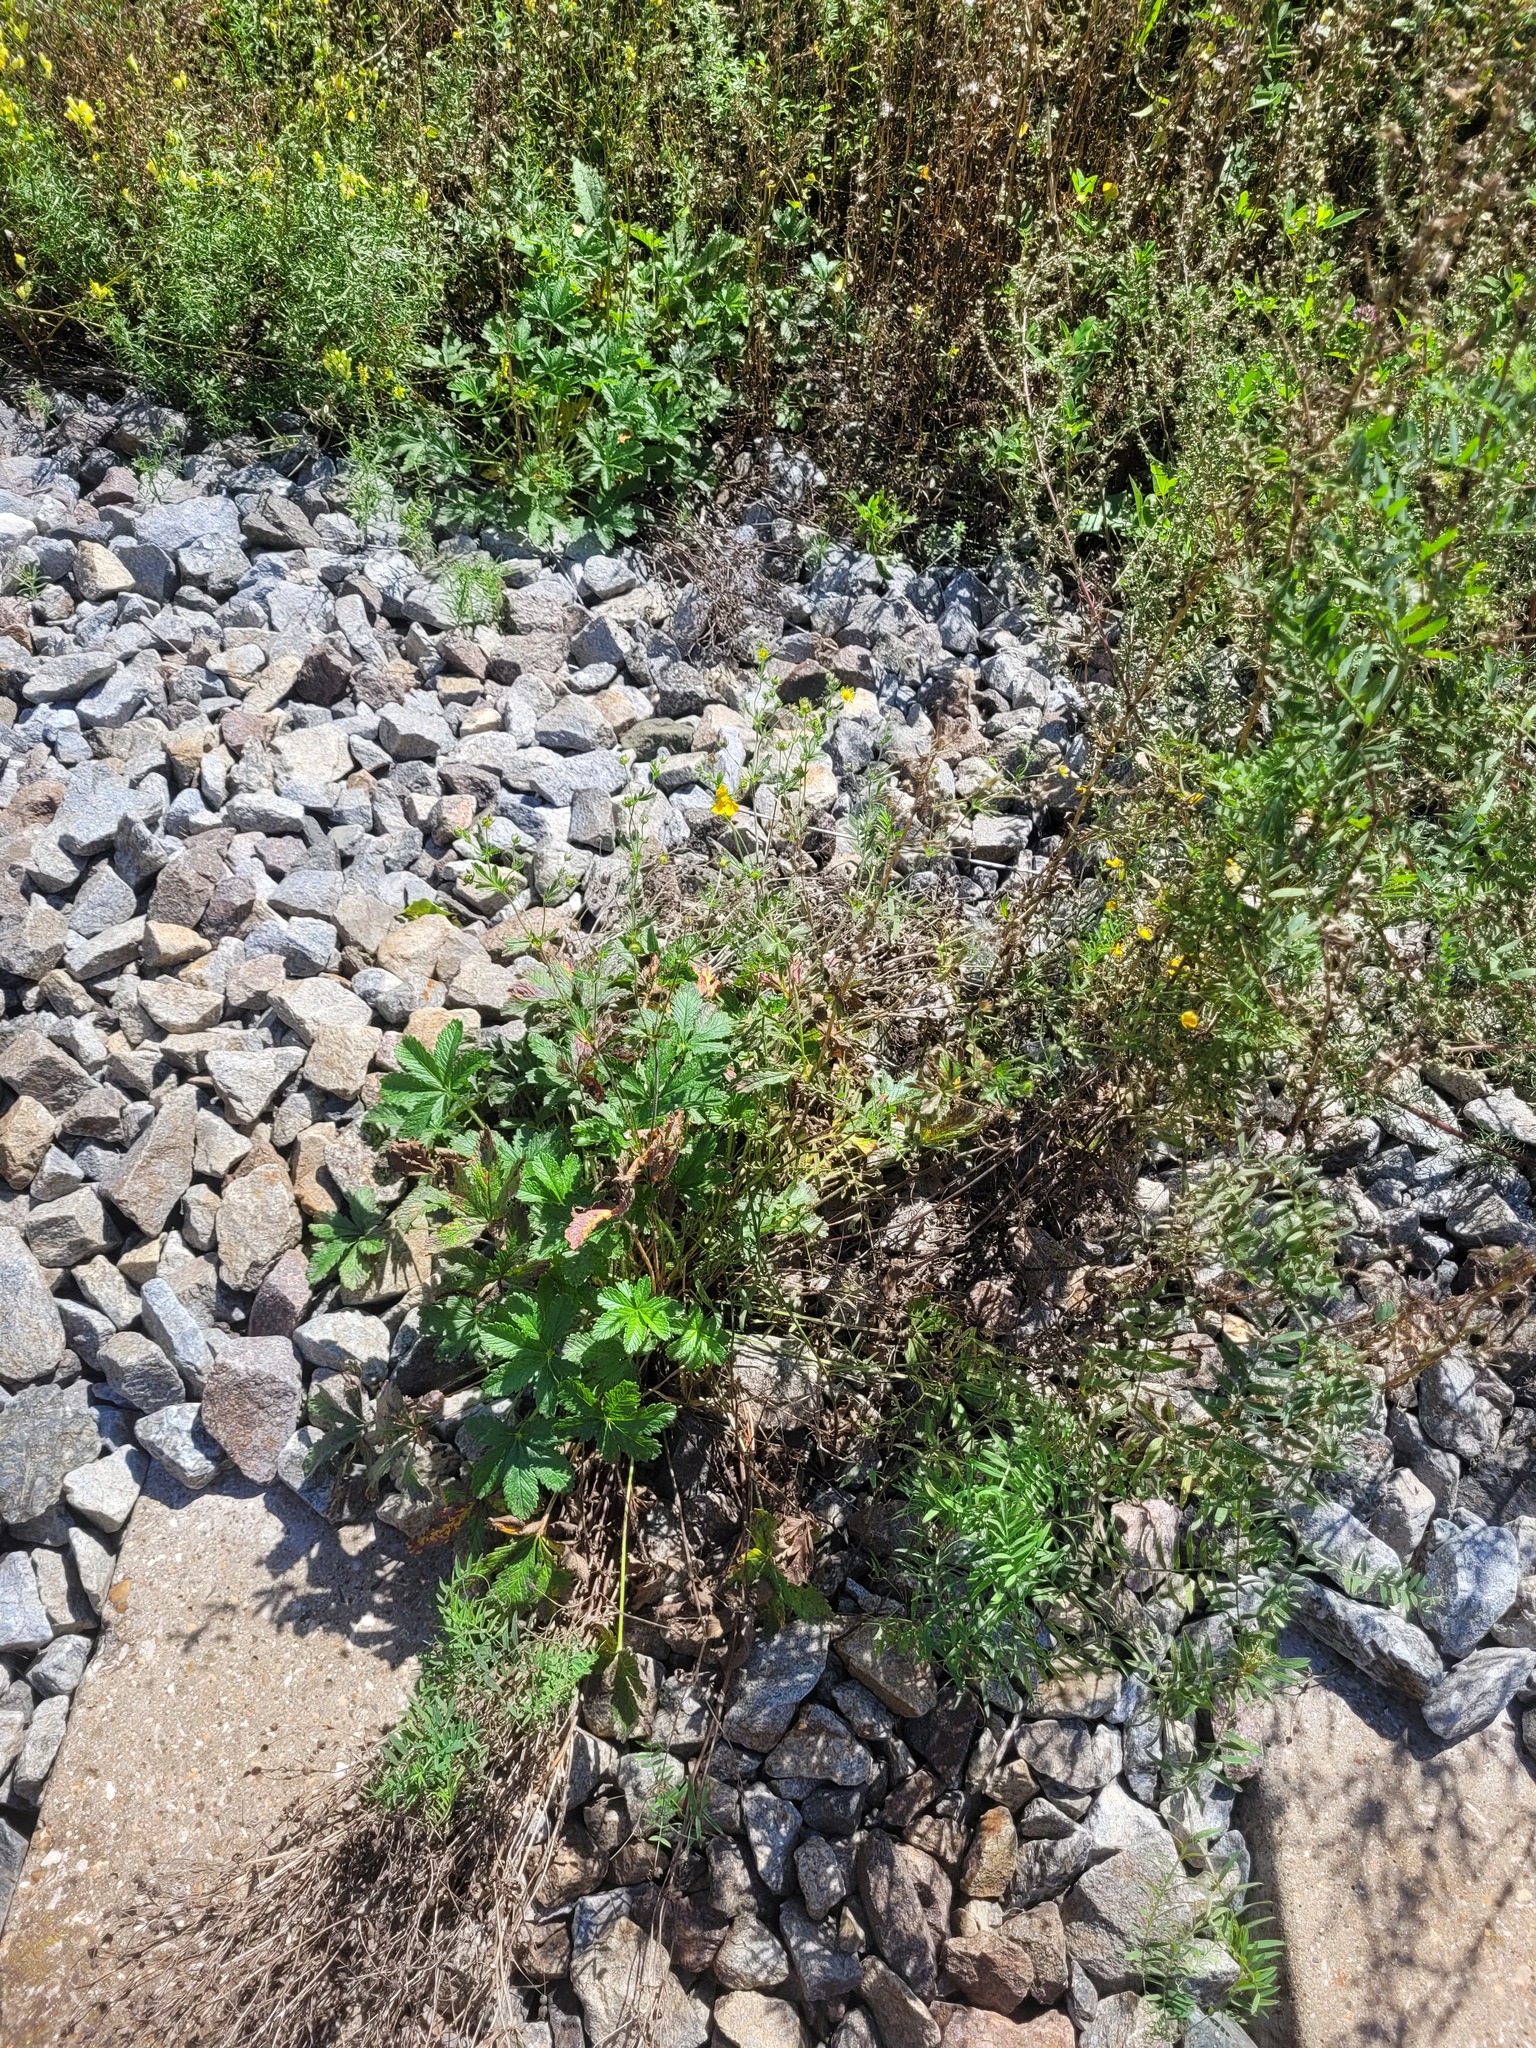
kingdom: Plantae
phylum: Tracheophyta
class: Magnoliopsida
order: Rosales
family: Rosaceae
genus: Potentilla
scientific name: Potentilla thuringiaca
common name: European cinquefoil
